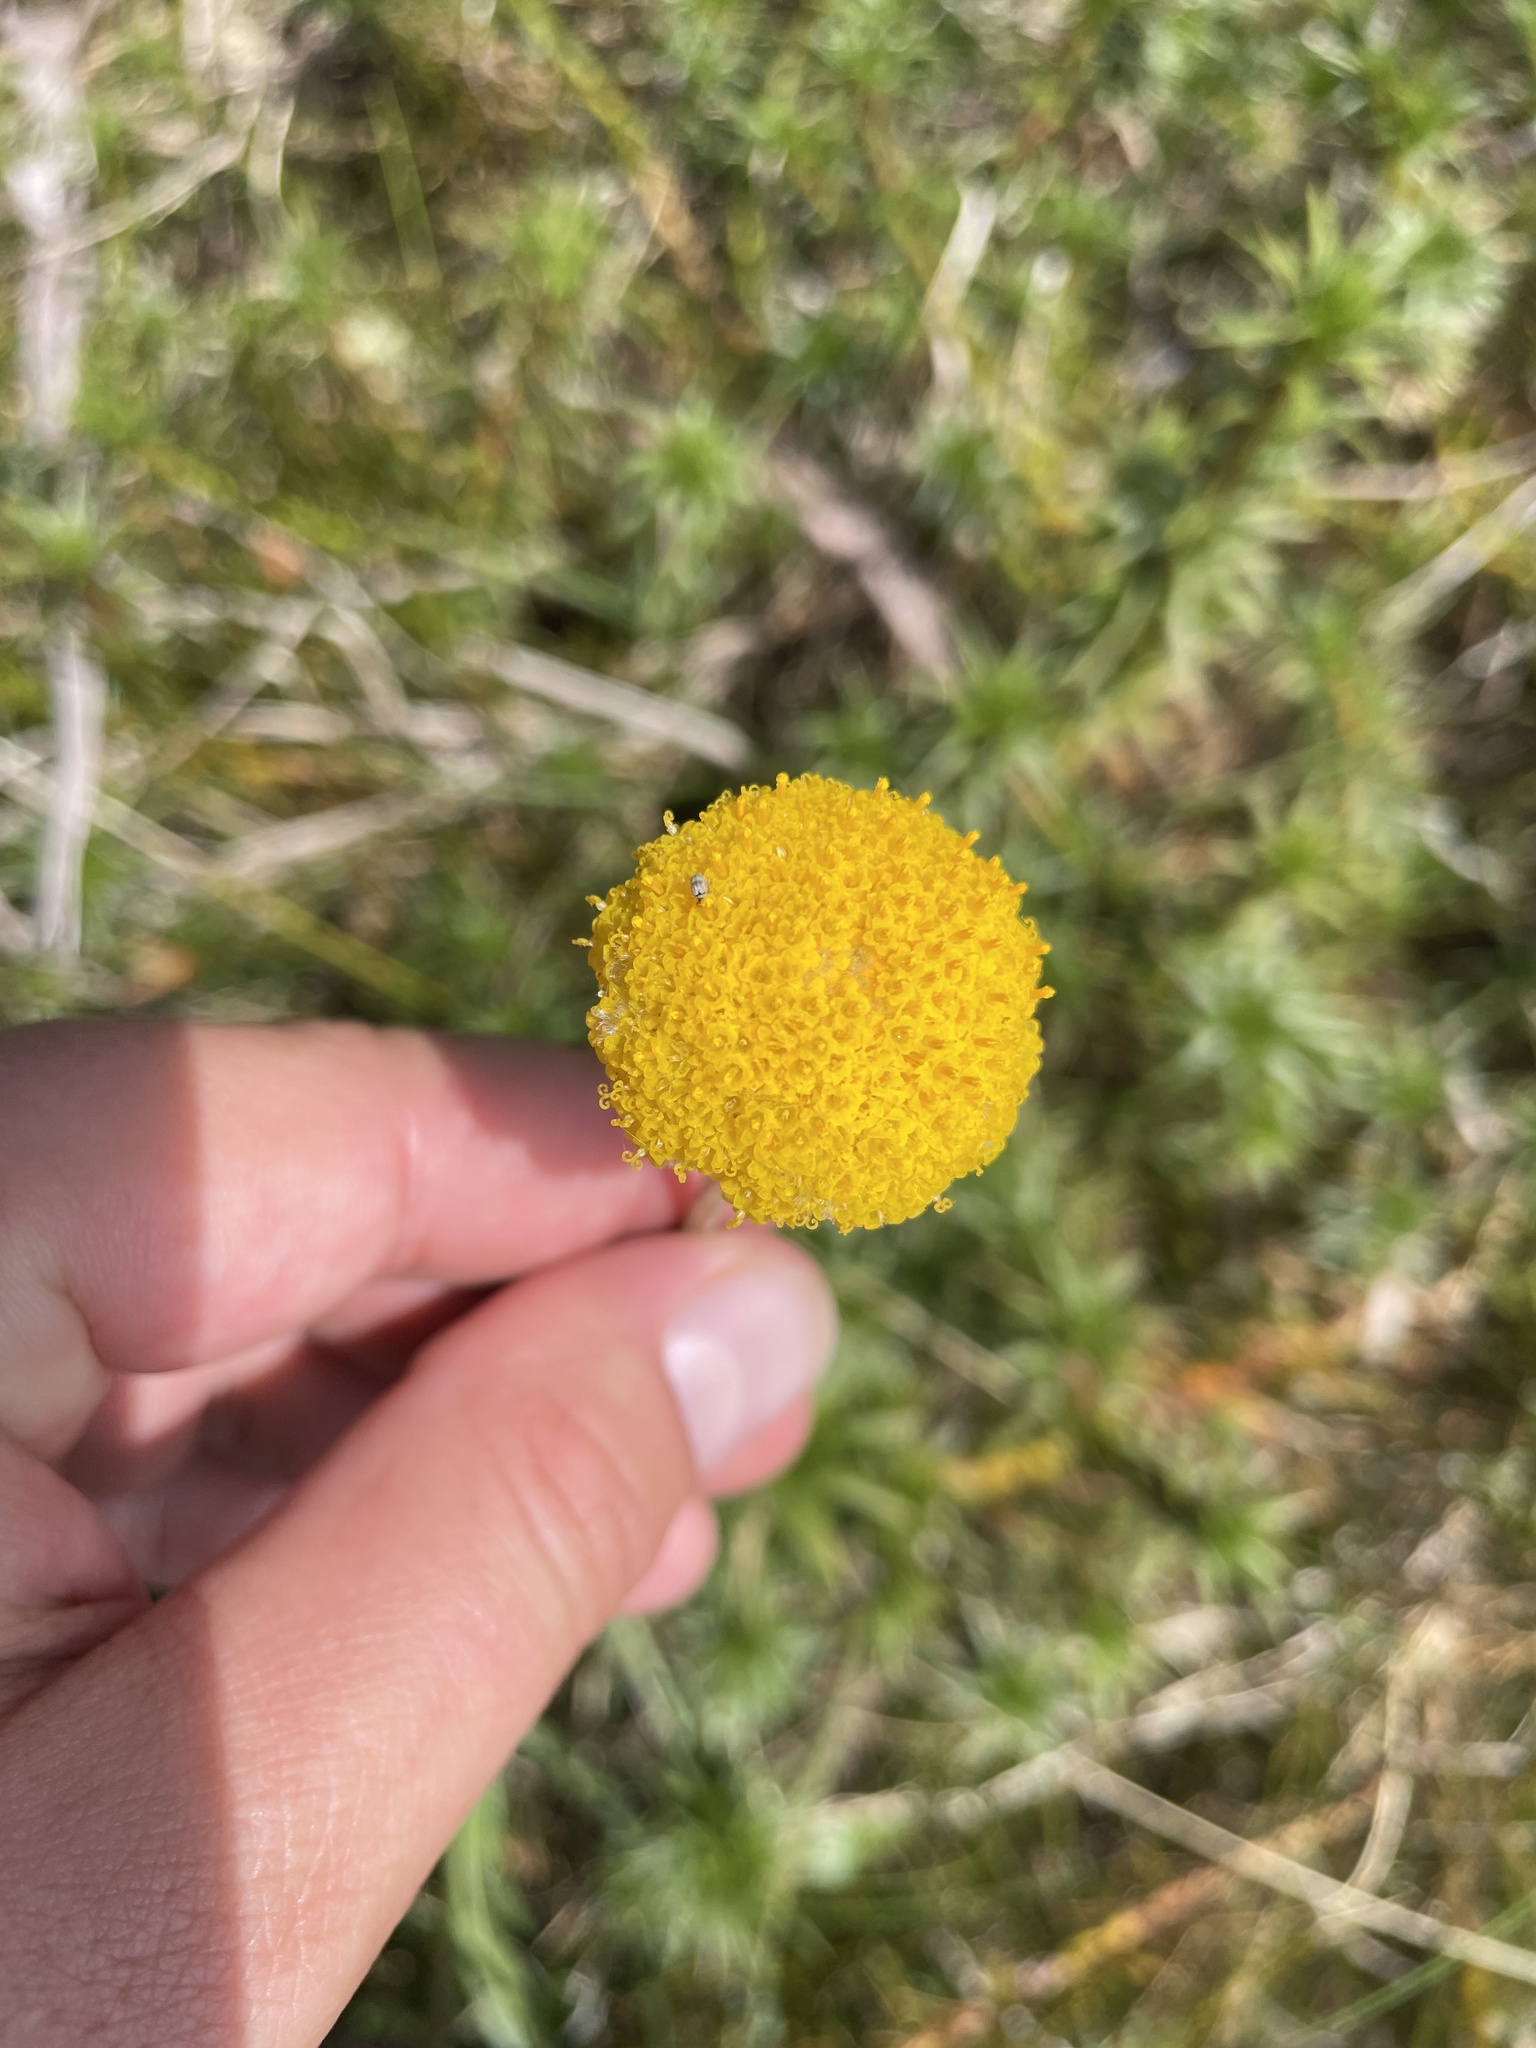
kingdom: Plantae
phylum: Tracheophyta
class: Magnoliopsida
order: Asterales
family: Asteraceae
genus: Craspedia
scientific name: Craspedia
